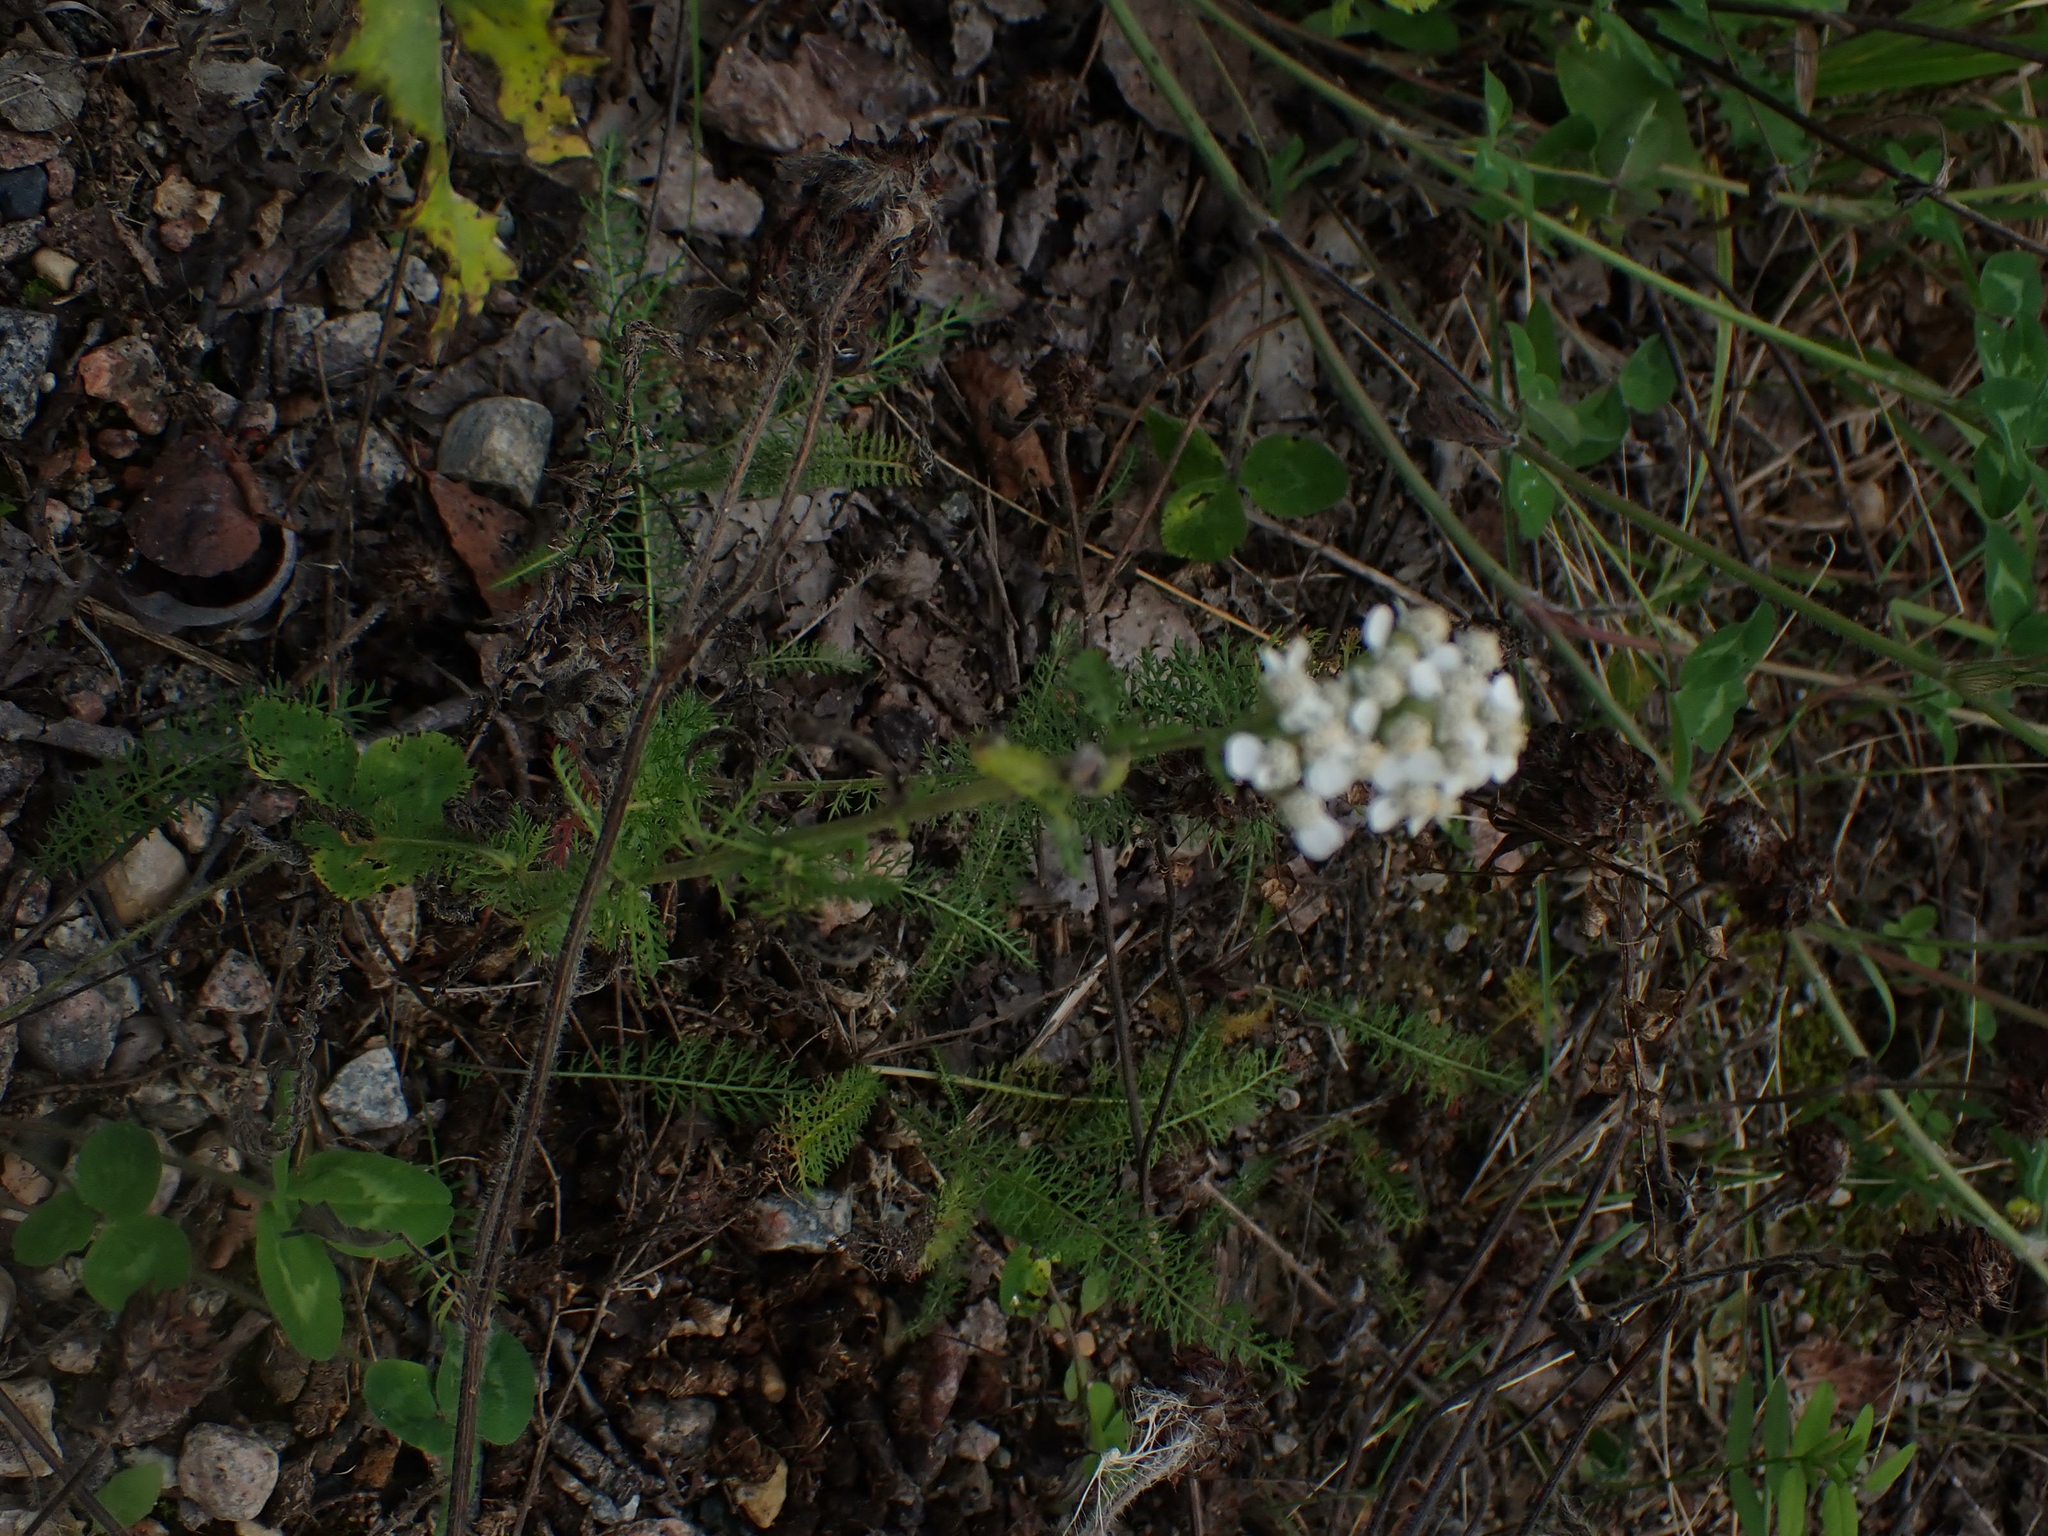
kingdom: Plantae
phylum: Tracheophyta
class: Magnoliopsida
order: Asterales
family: Asteraceae
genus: Achillea
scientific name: Achillea millefolium
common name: Yarrow
